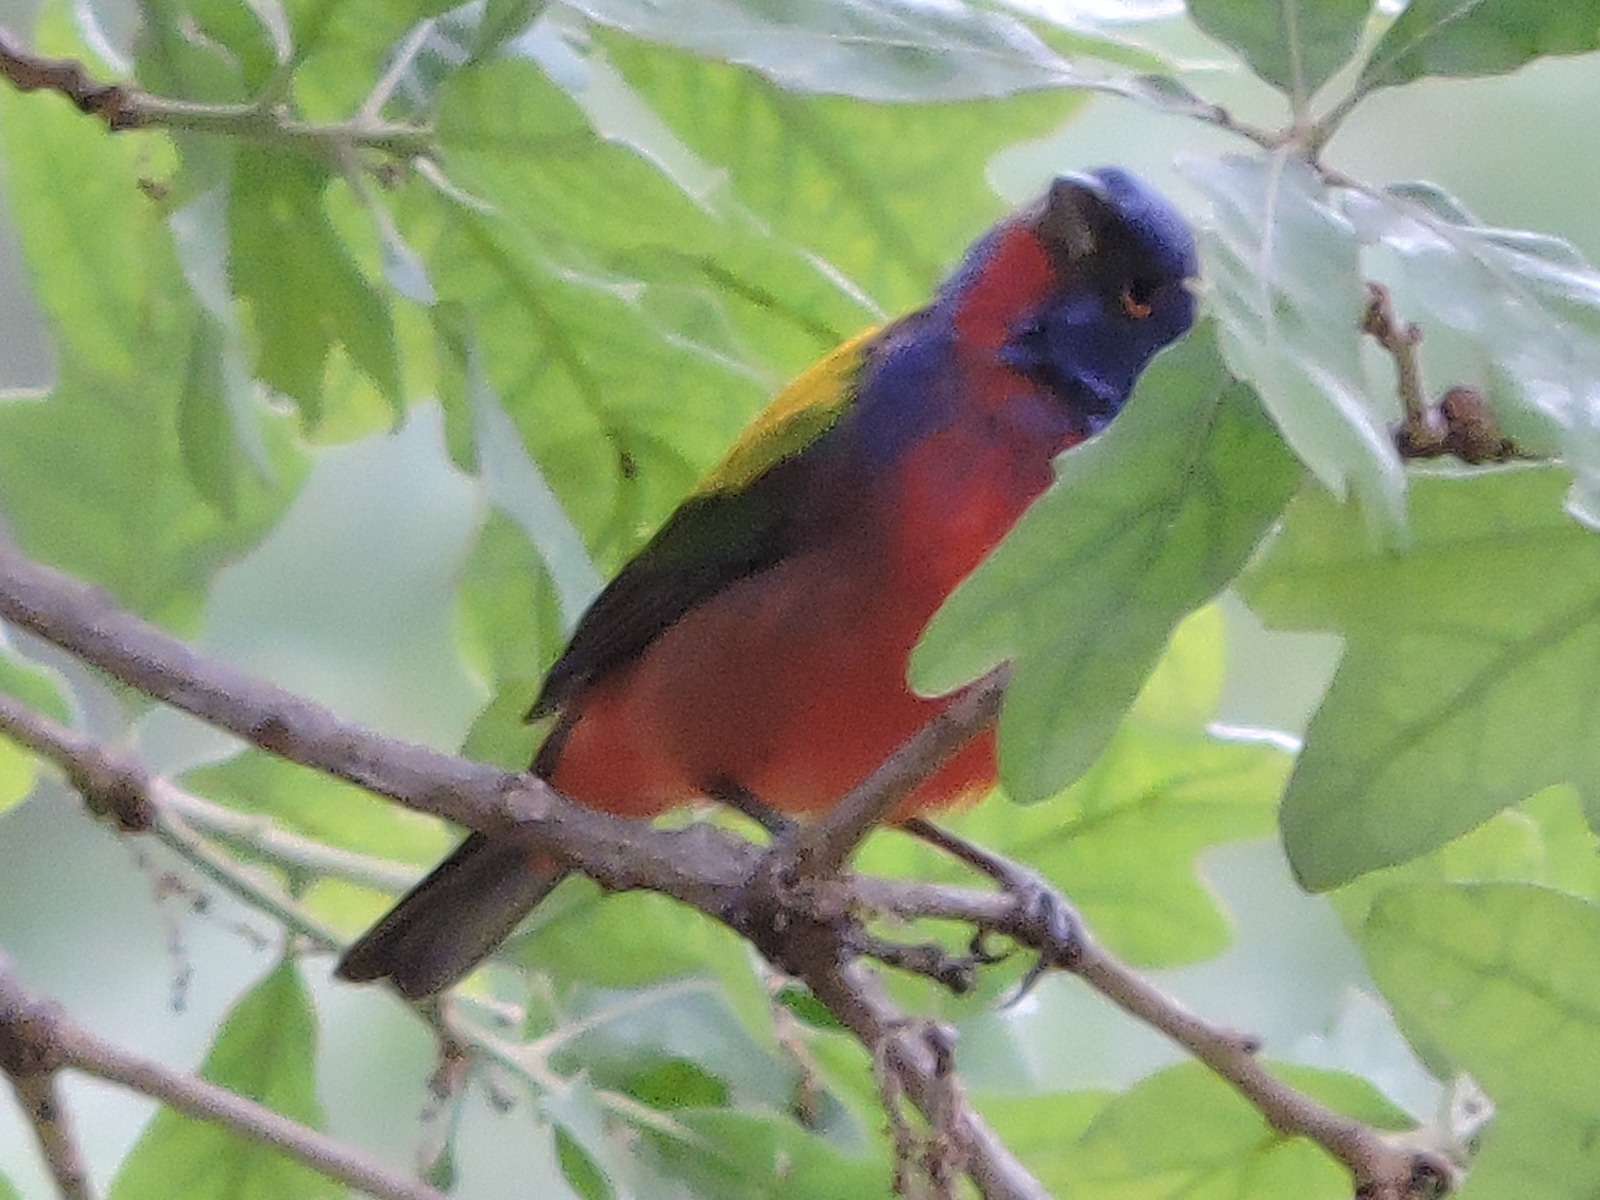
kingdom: Animalia
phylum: Chordata
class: Aves
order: Passeriformes
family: Cardinalidae
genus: Passerina
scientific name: Passerina ciris
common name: Painted bunting
